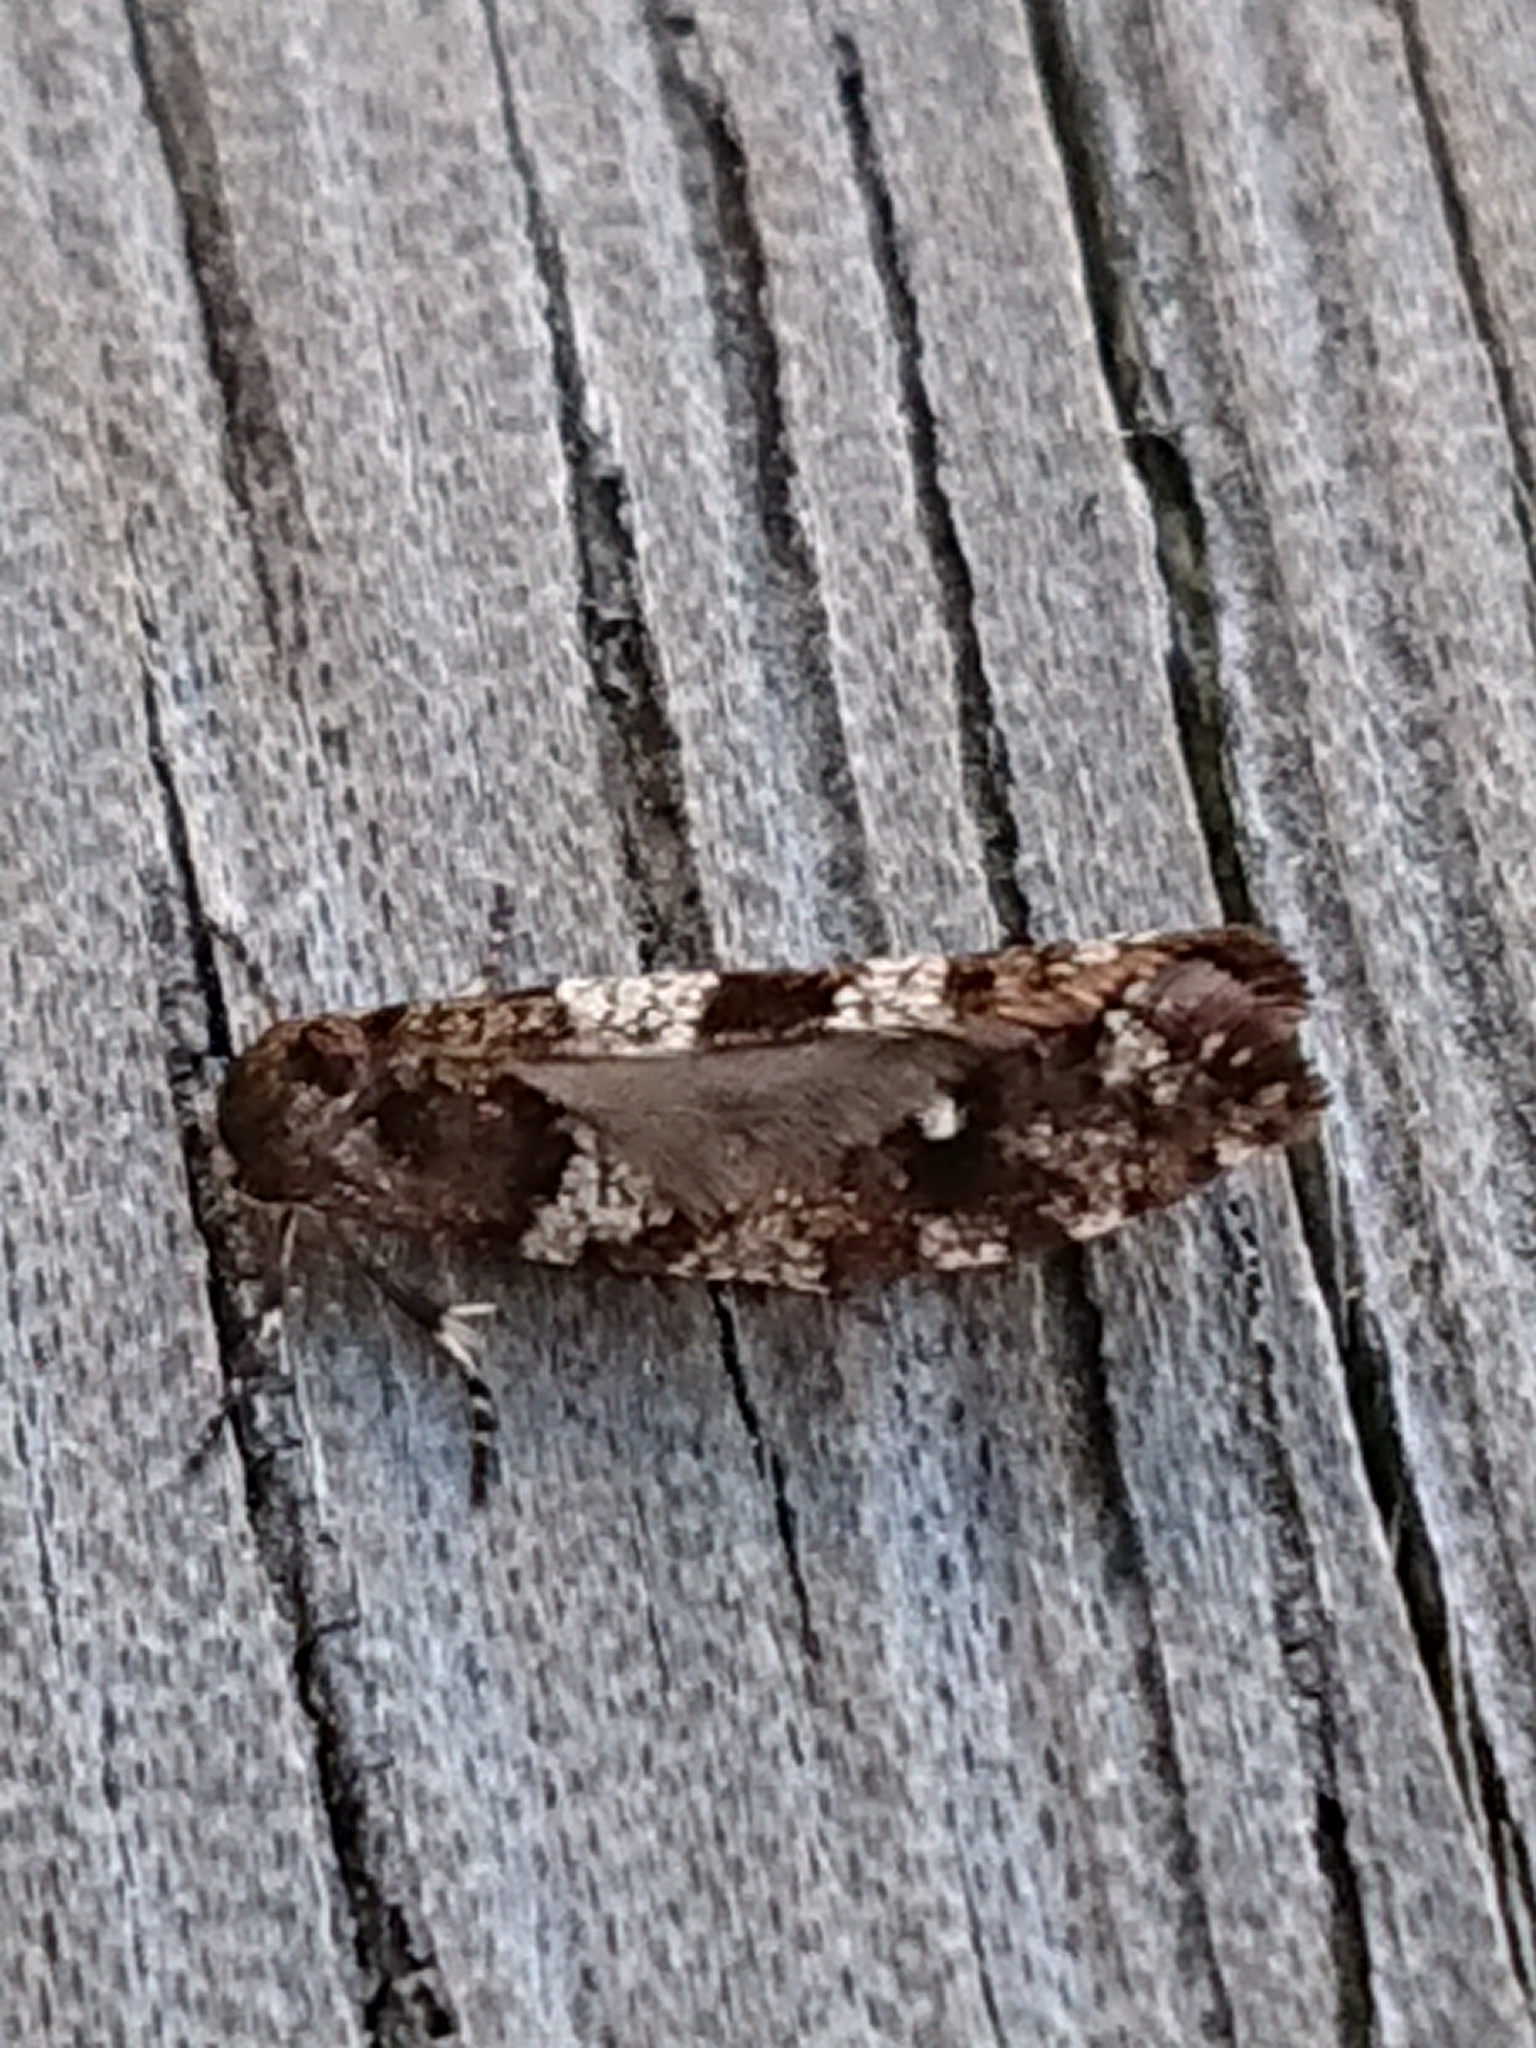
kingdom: Animalia
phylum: Arthropoda
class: Insecta
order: Lepidoptera
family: Psychidae
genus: Lepidoscia
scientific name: Lepidoscia heliochares
